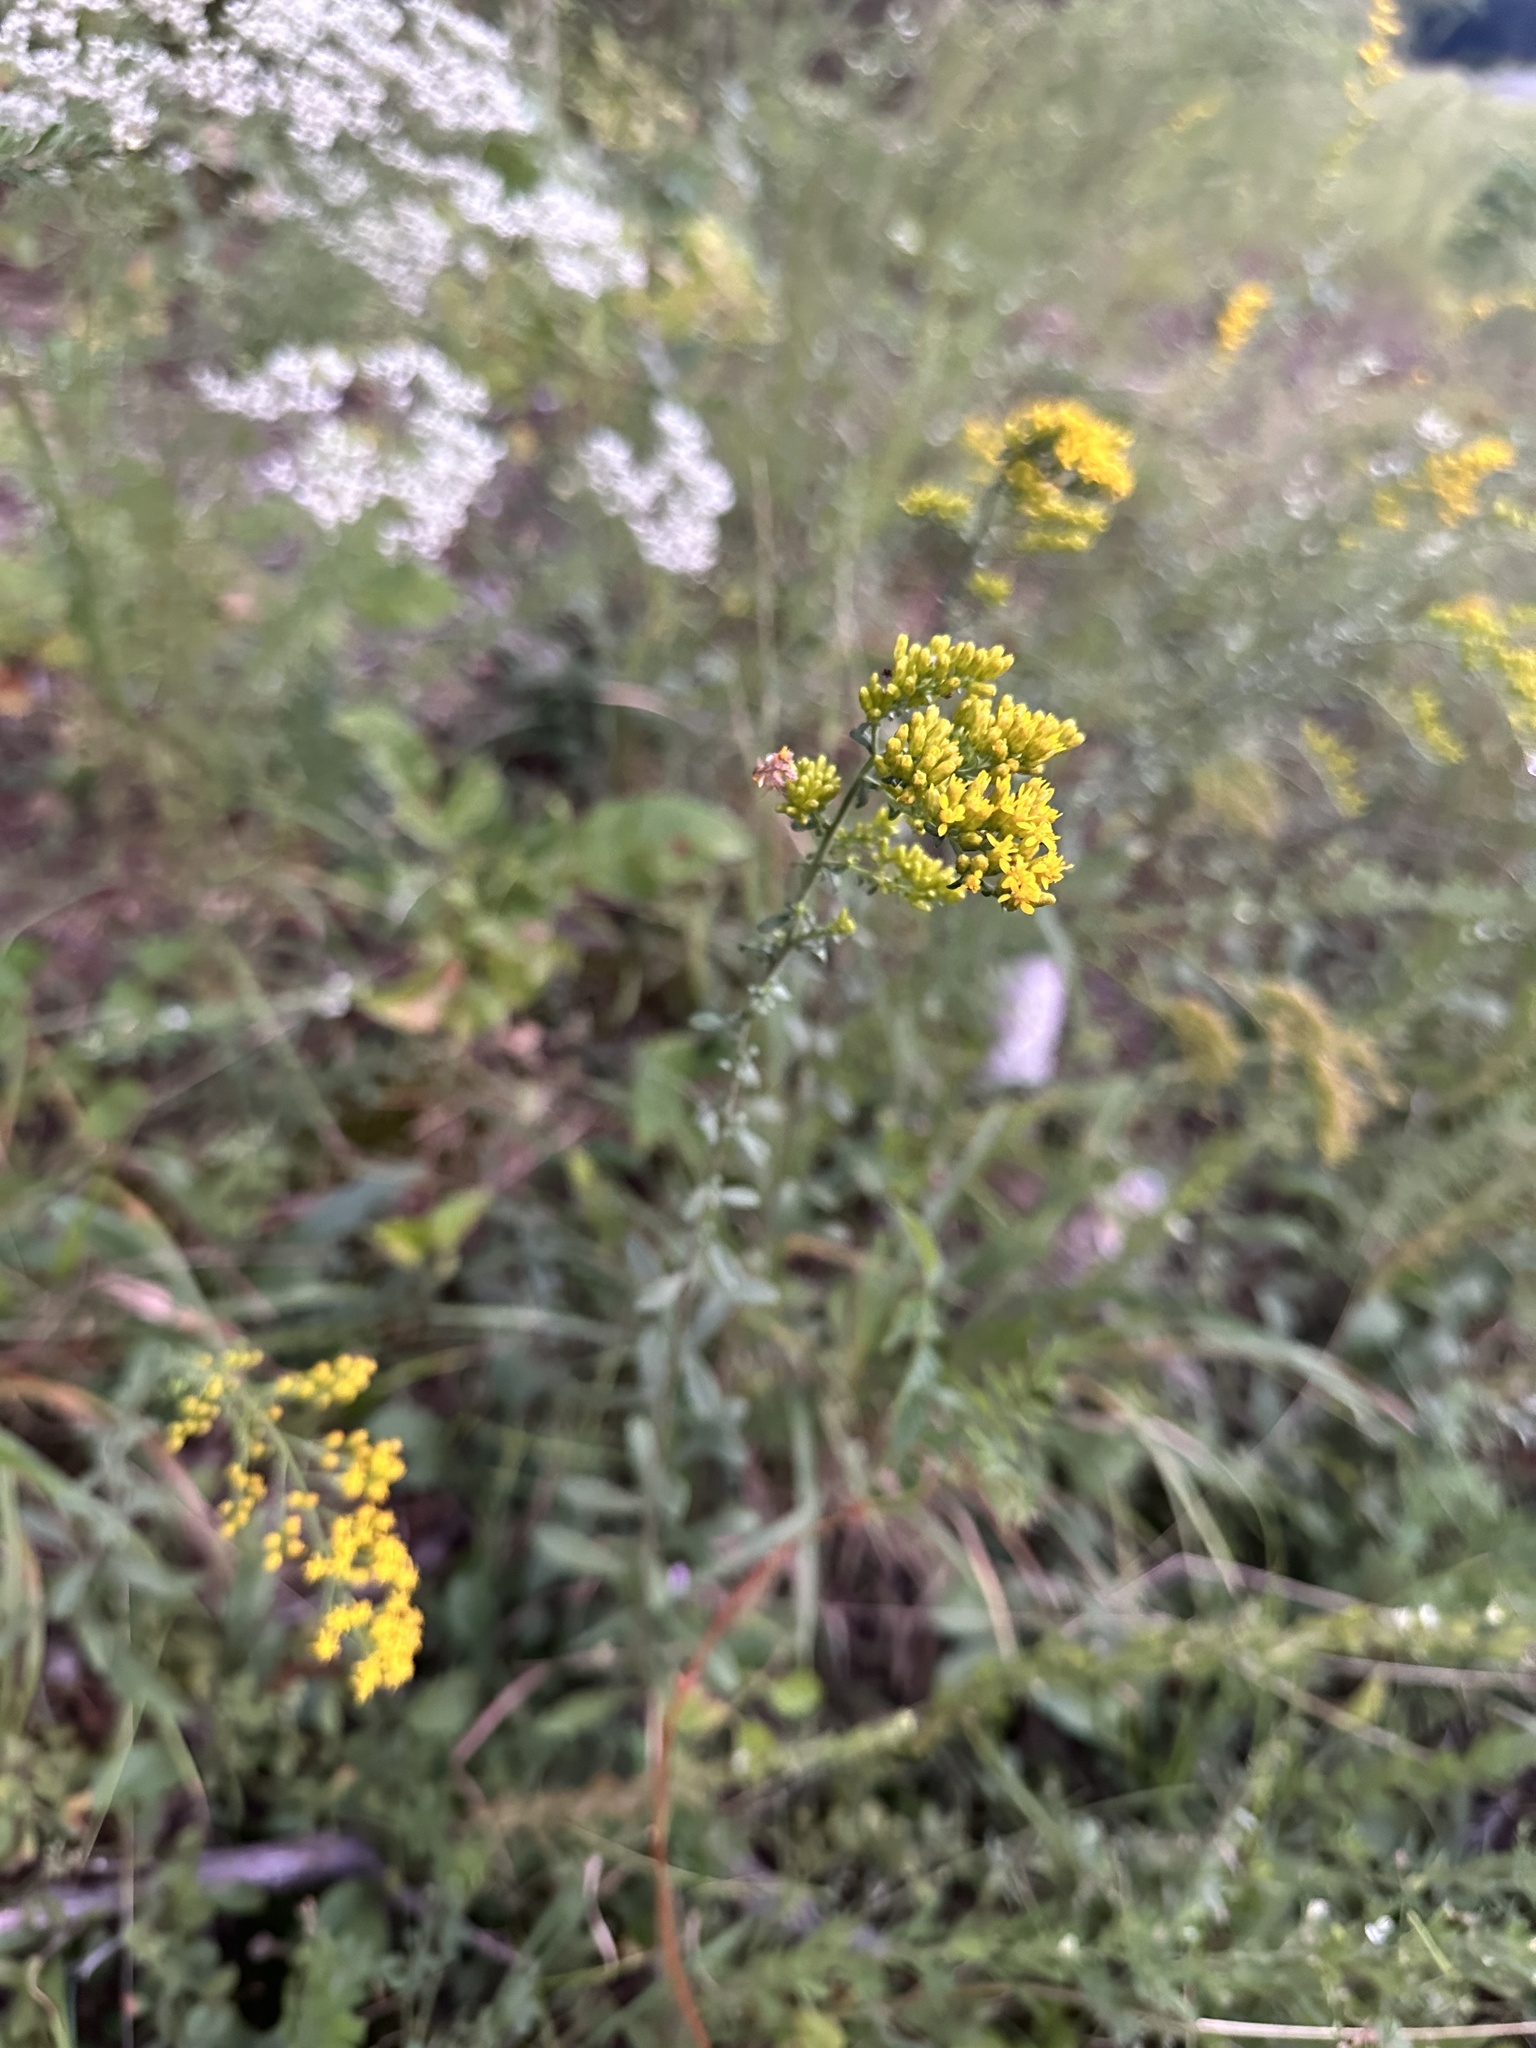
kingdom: Plantae
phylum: Tracheophyta
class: Magnoliopsida
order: Asterales
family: Asteraceae
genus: Solidago
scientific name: Solidago nemoralis
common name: Grey goldenrod
